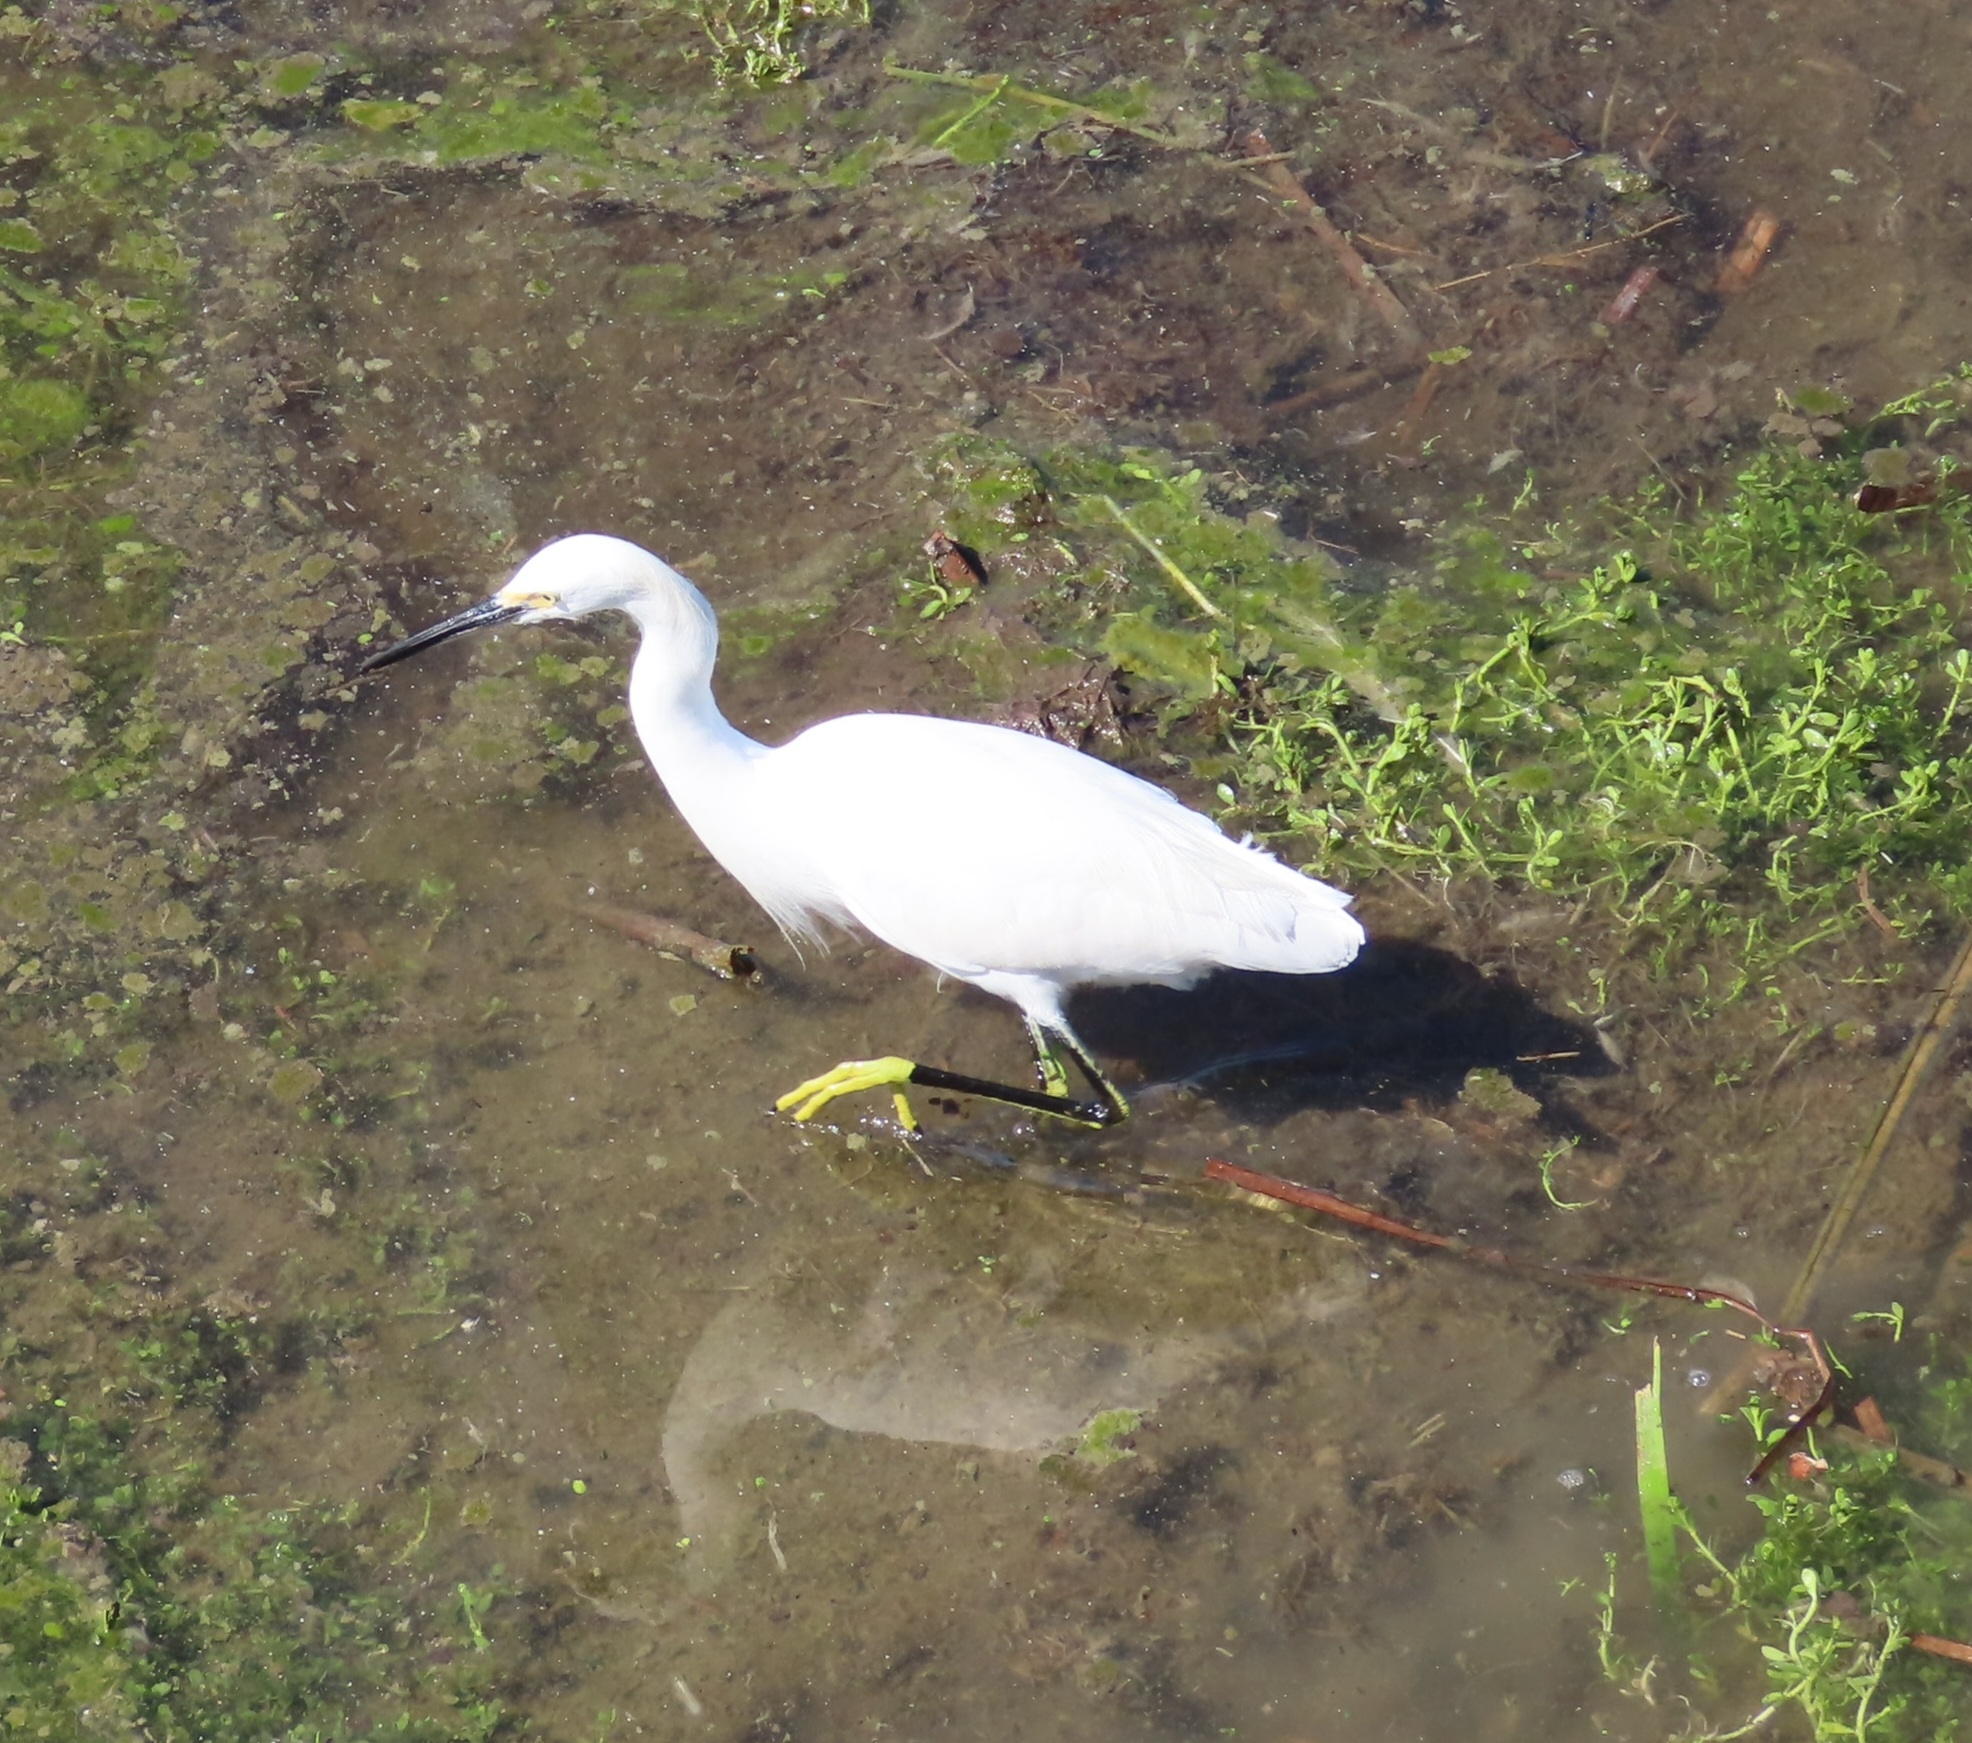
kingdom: Animalia
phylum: Chordata
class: Aves
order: Pelecaniformes
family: Ardeidae
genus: Egretta
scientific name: Egretta thula
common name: Snowy egret
